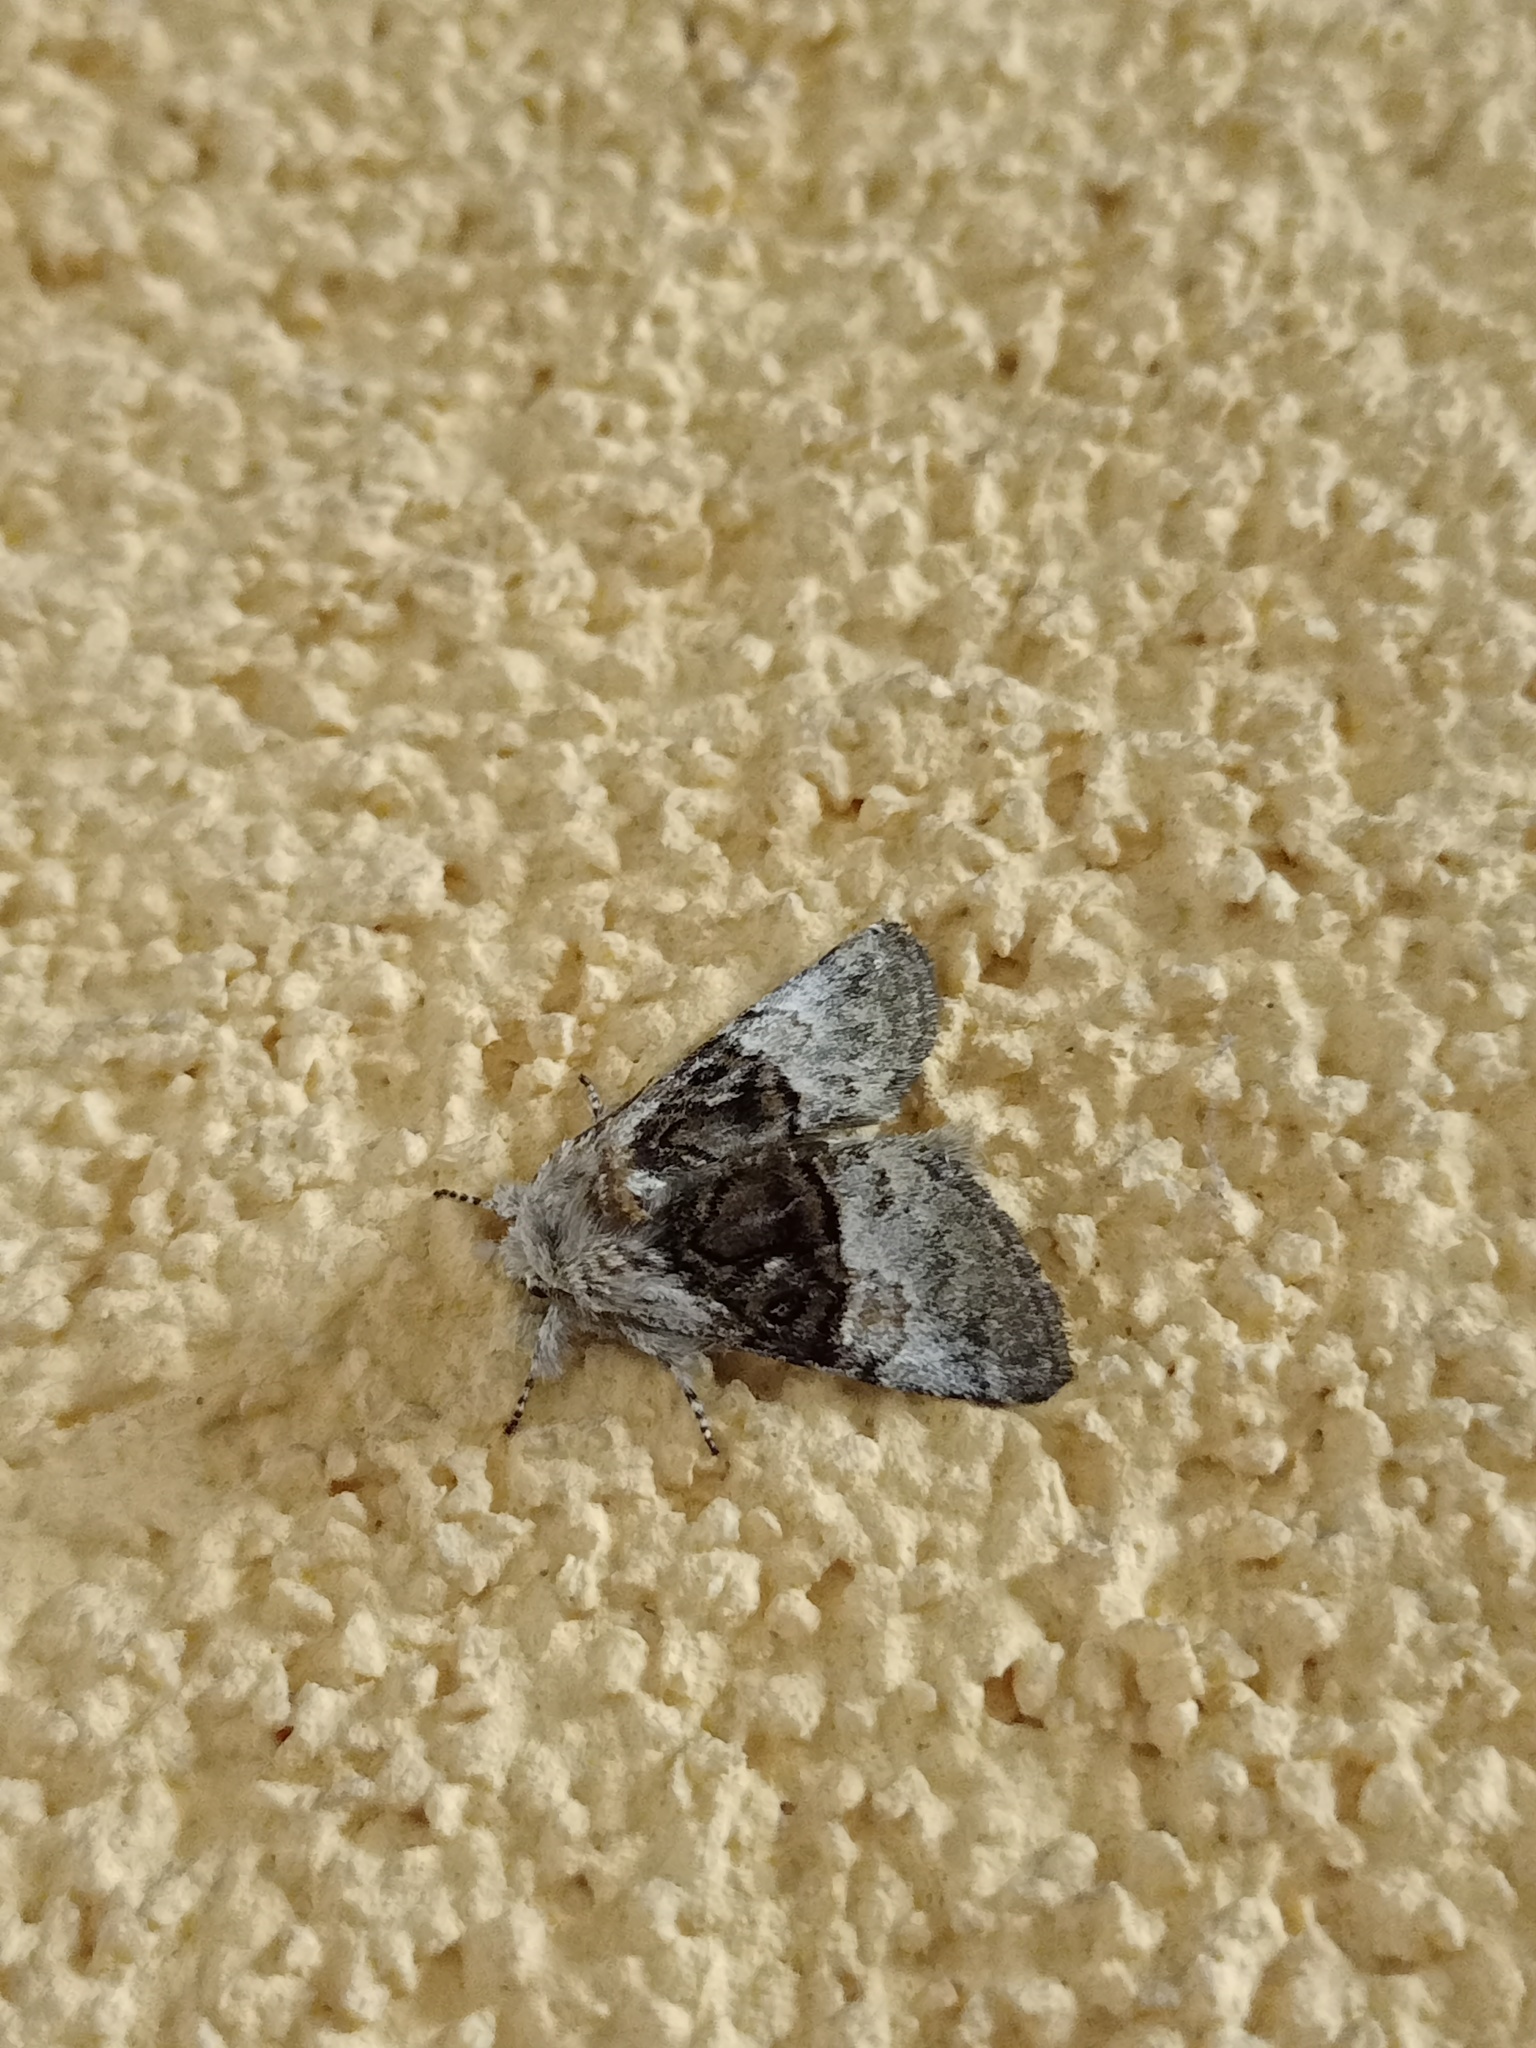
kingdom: Animalia
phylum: Arthropoda
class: Insecta
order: Lepidoptera
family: Noctuidae
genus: Colocasia
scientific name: Colocasia coryli
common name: Nut-tree tussock
